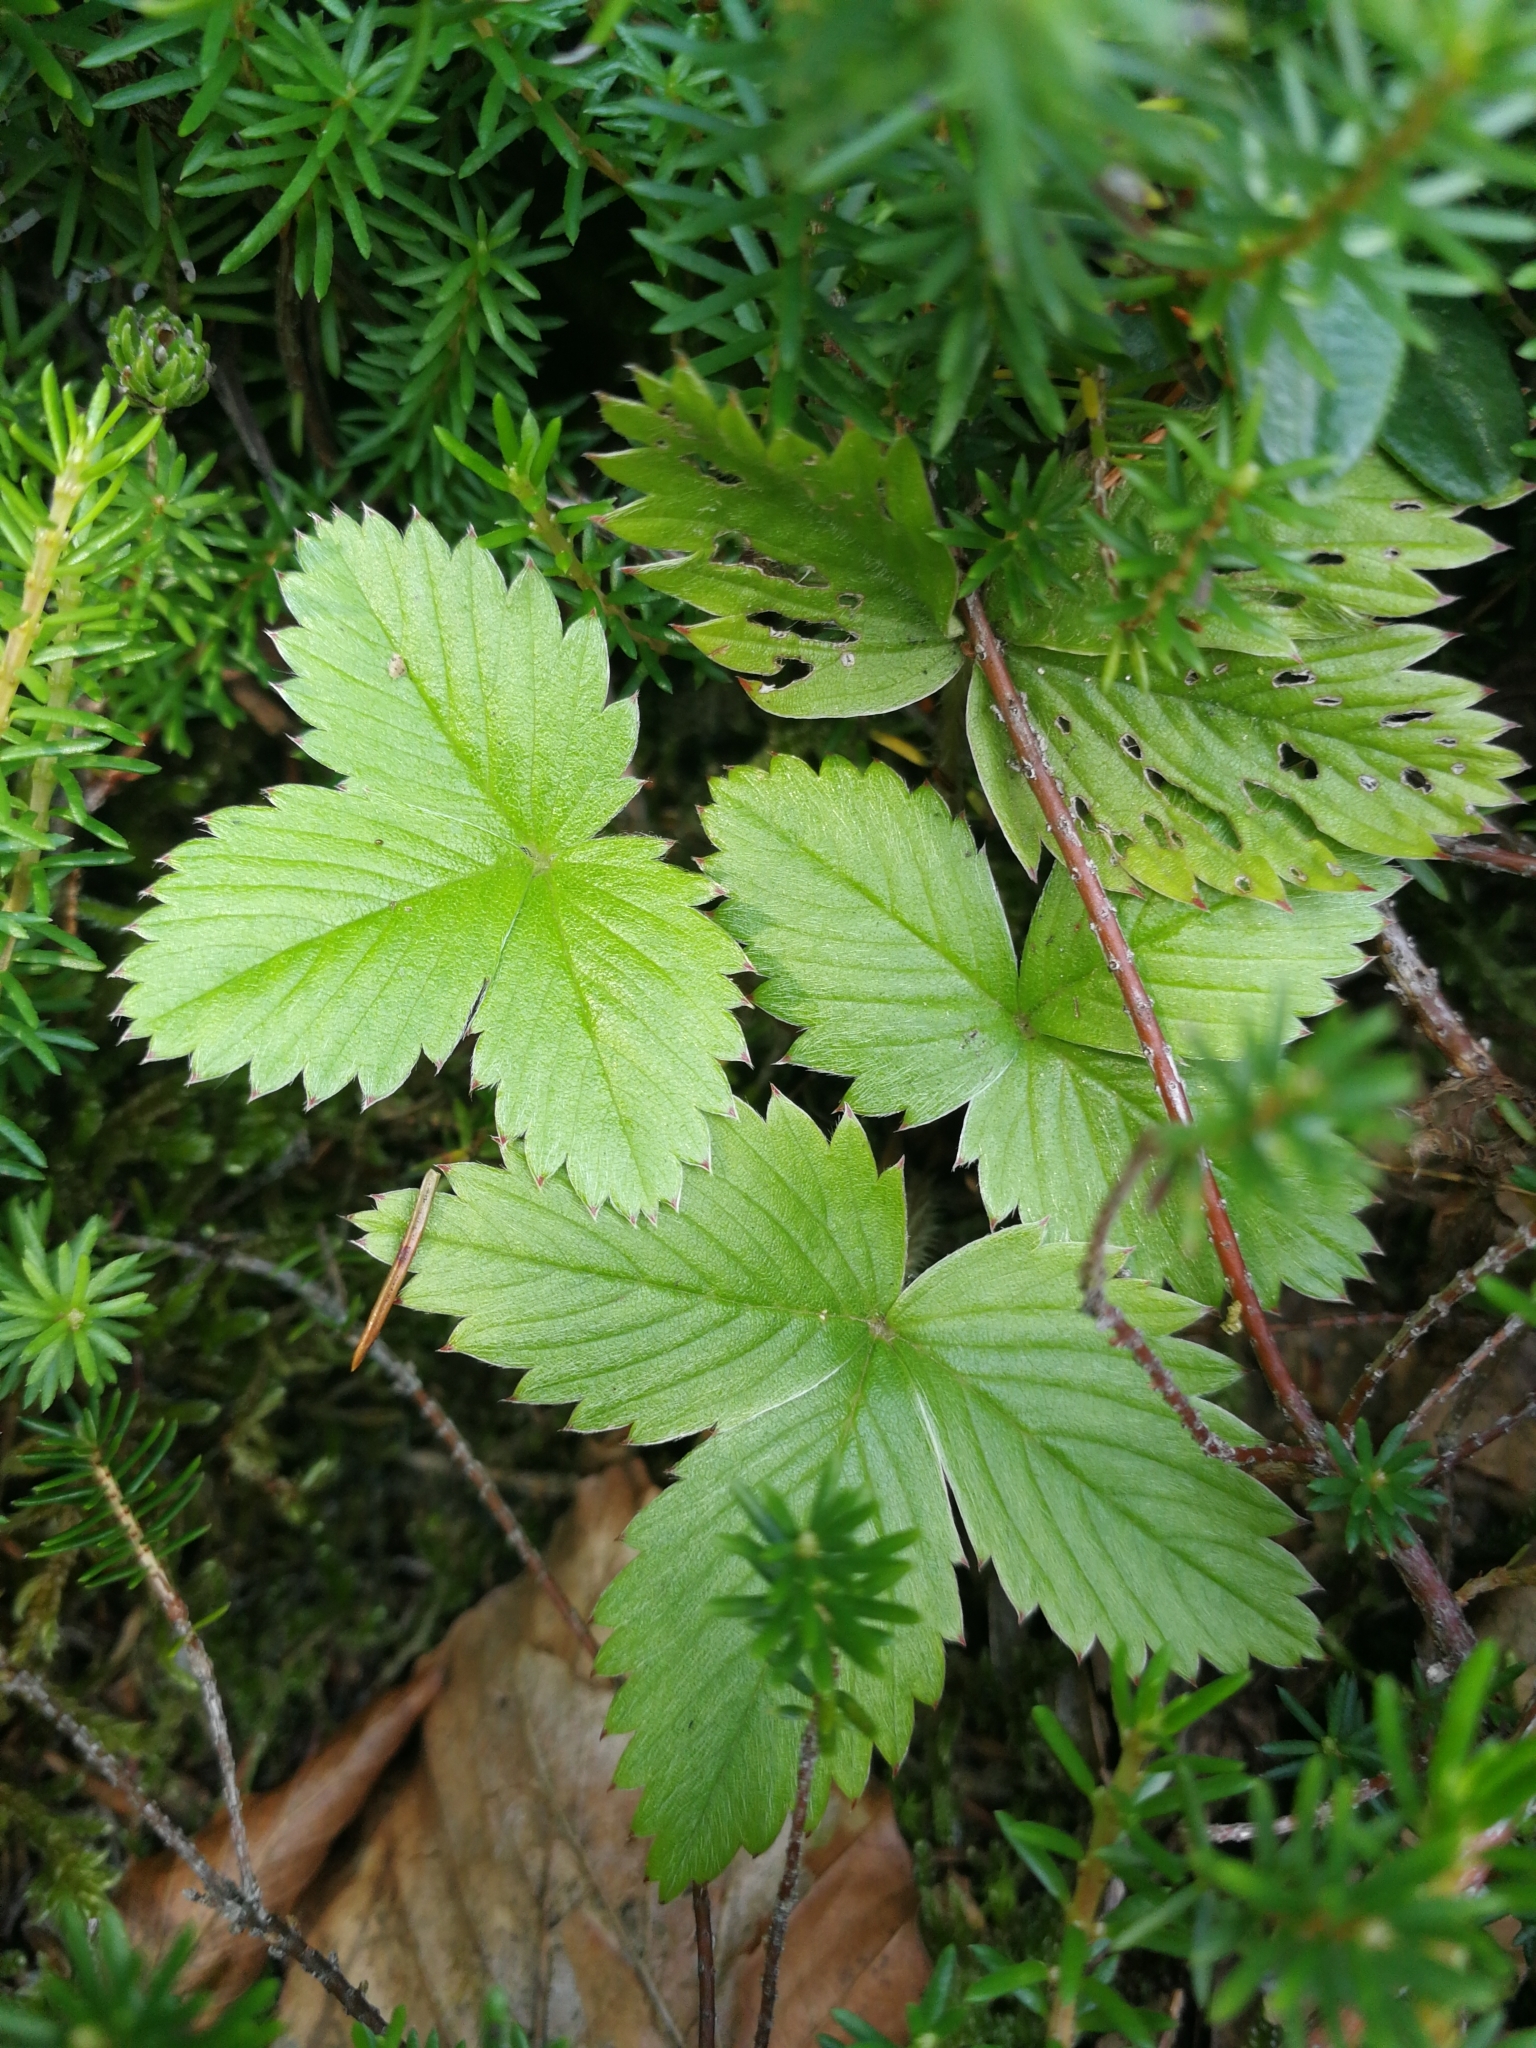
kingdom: Plantae
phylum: Tracheophyta
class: Magnoliopsida
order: Rosales
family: Rosaceae
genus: Fragaria
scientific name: Fragaria vesca
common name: Wild strawberry
